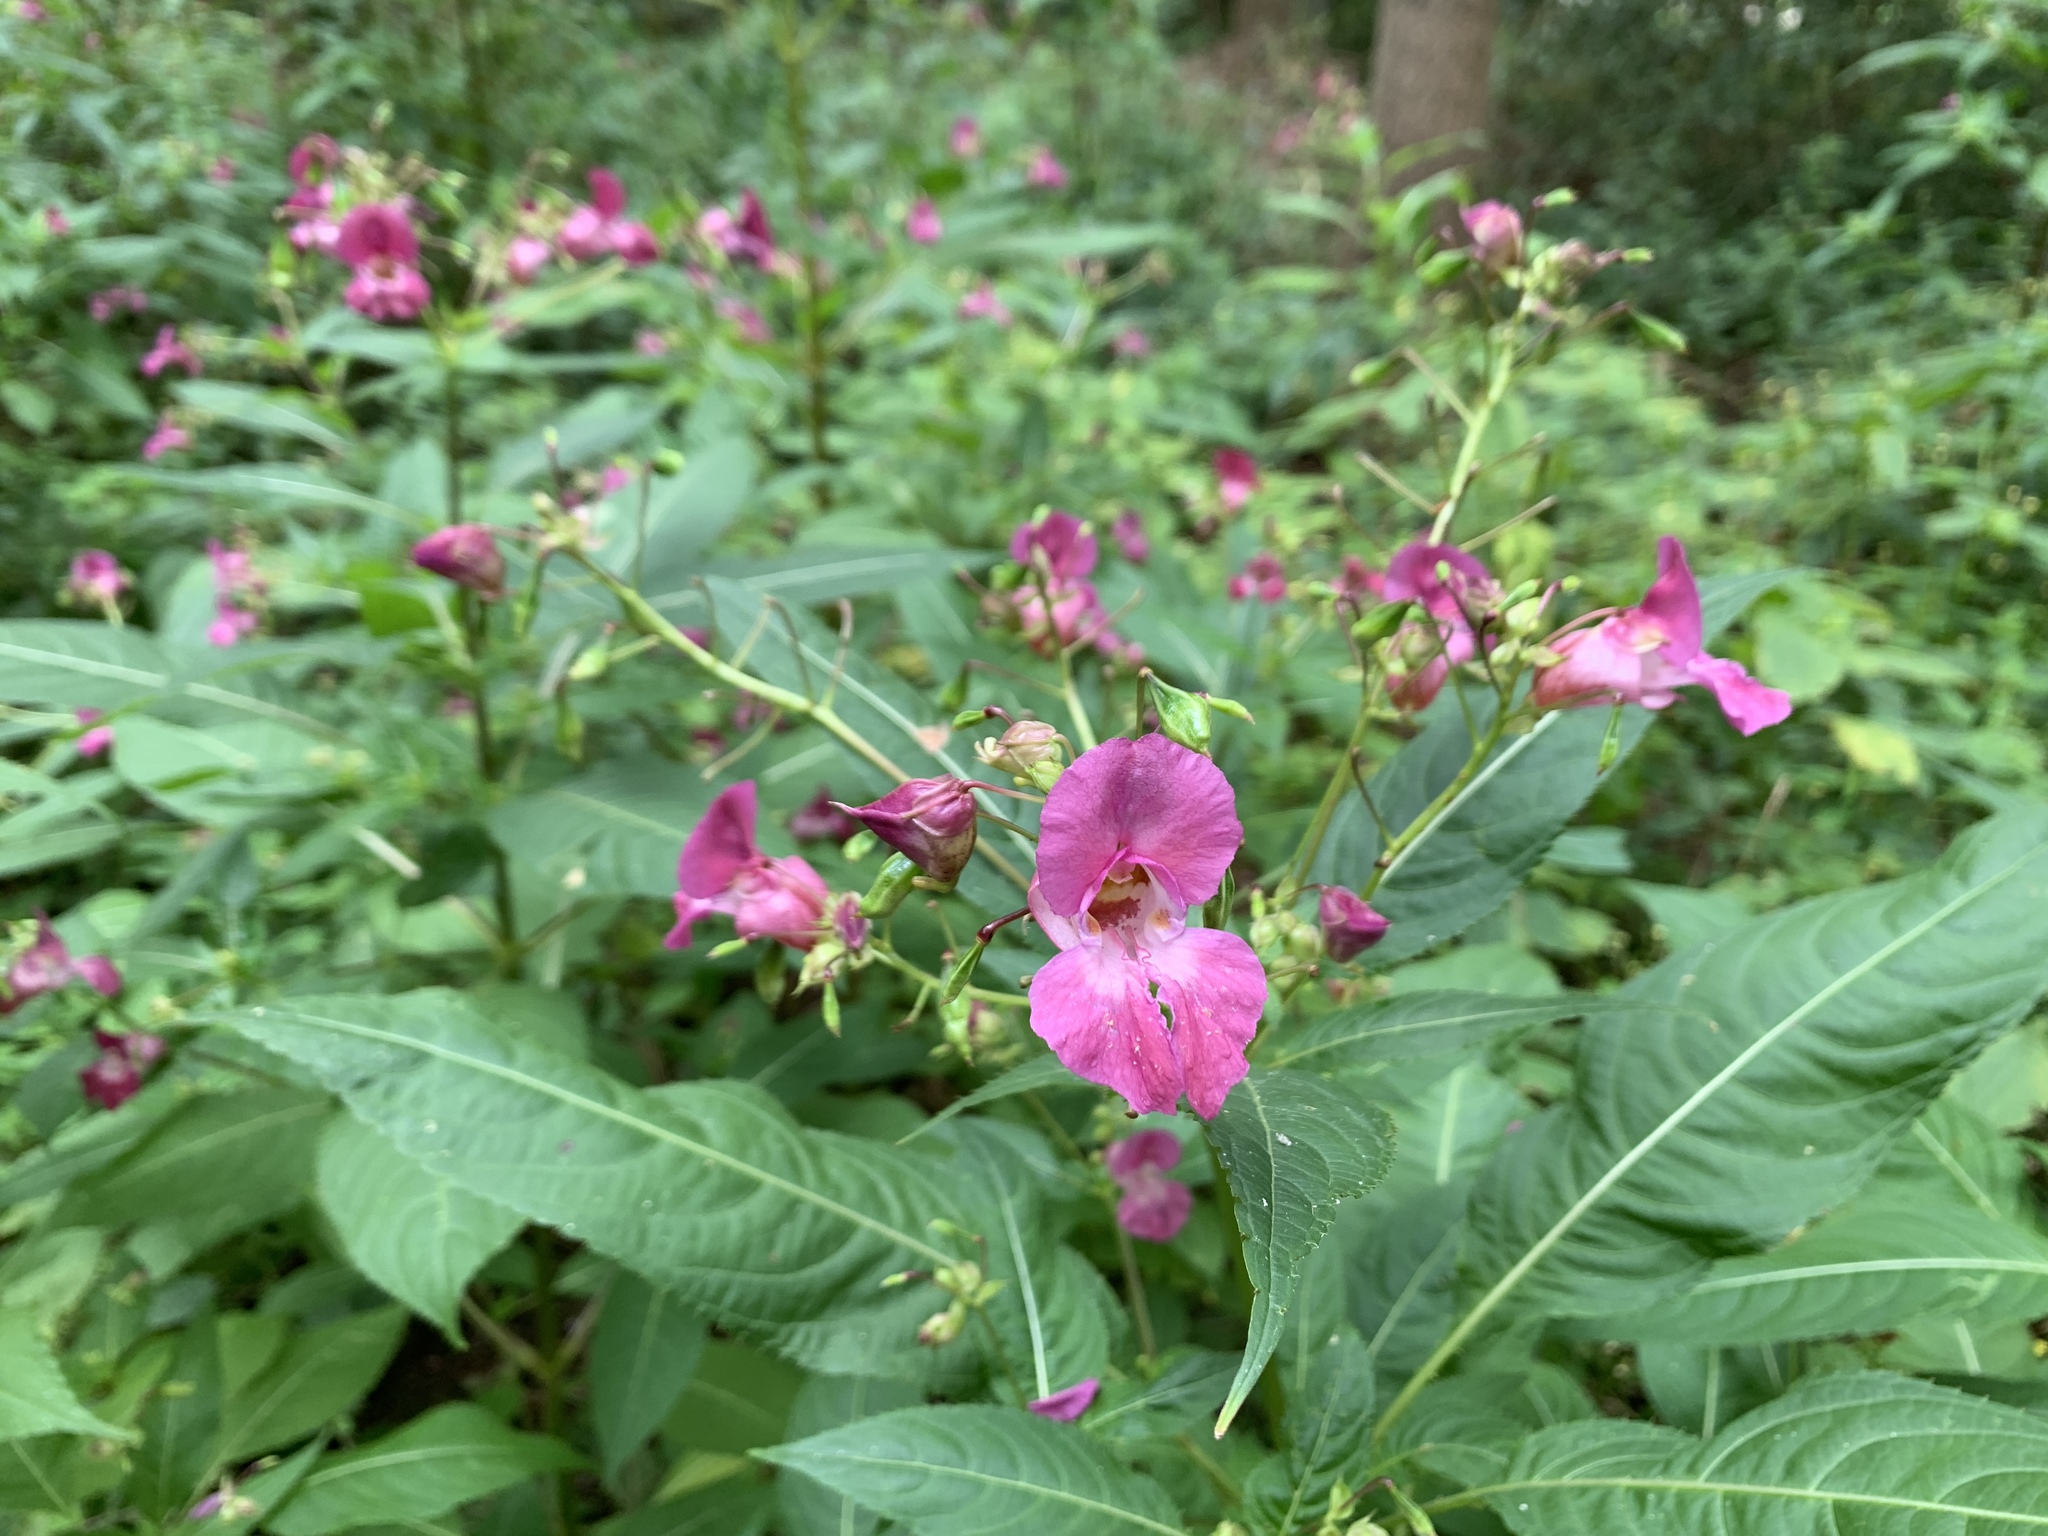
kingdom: Plantae
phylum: Tracheophyta
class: Magnoliopsida
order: Ericales
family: Balsaminaceae
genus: Impatiens
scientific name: Impatiens glandulifera
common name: Himalayan balsam
